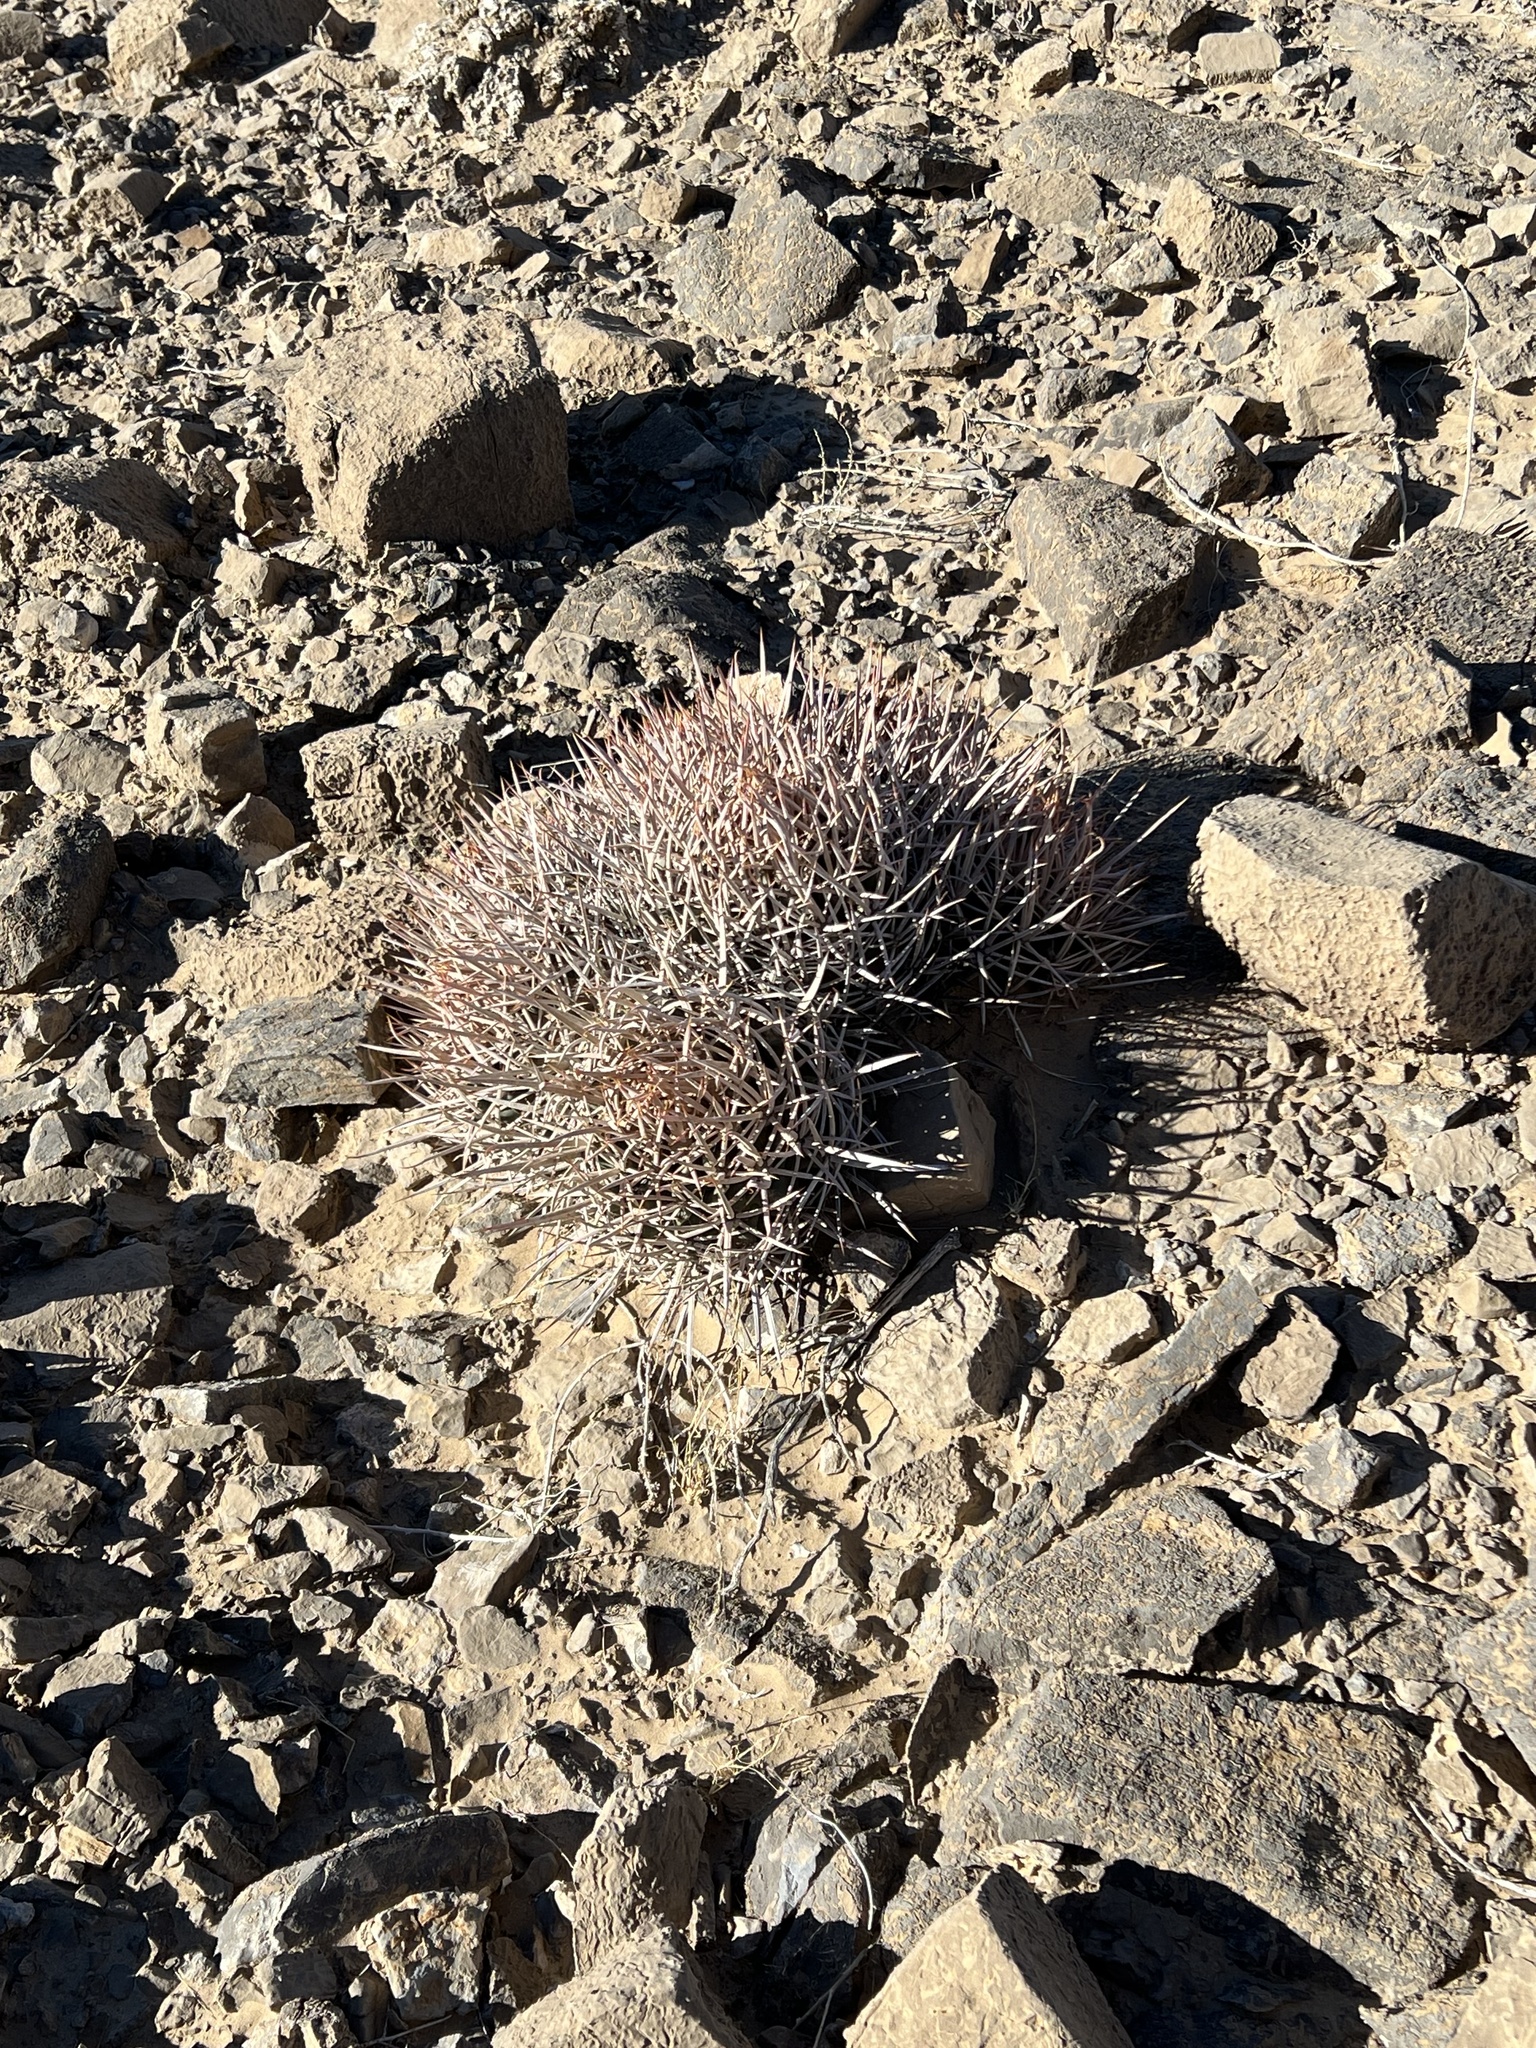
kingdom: Plantae
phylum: Tracheophyta
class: Magnoliopsida
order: Caryophyllales
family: Cactaceae
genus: Echinocactus
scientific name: Echinocactus polycephalus
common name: Cottontop cactus
